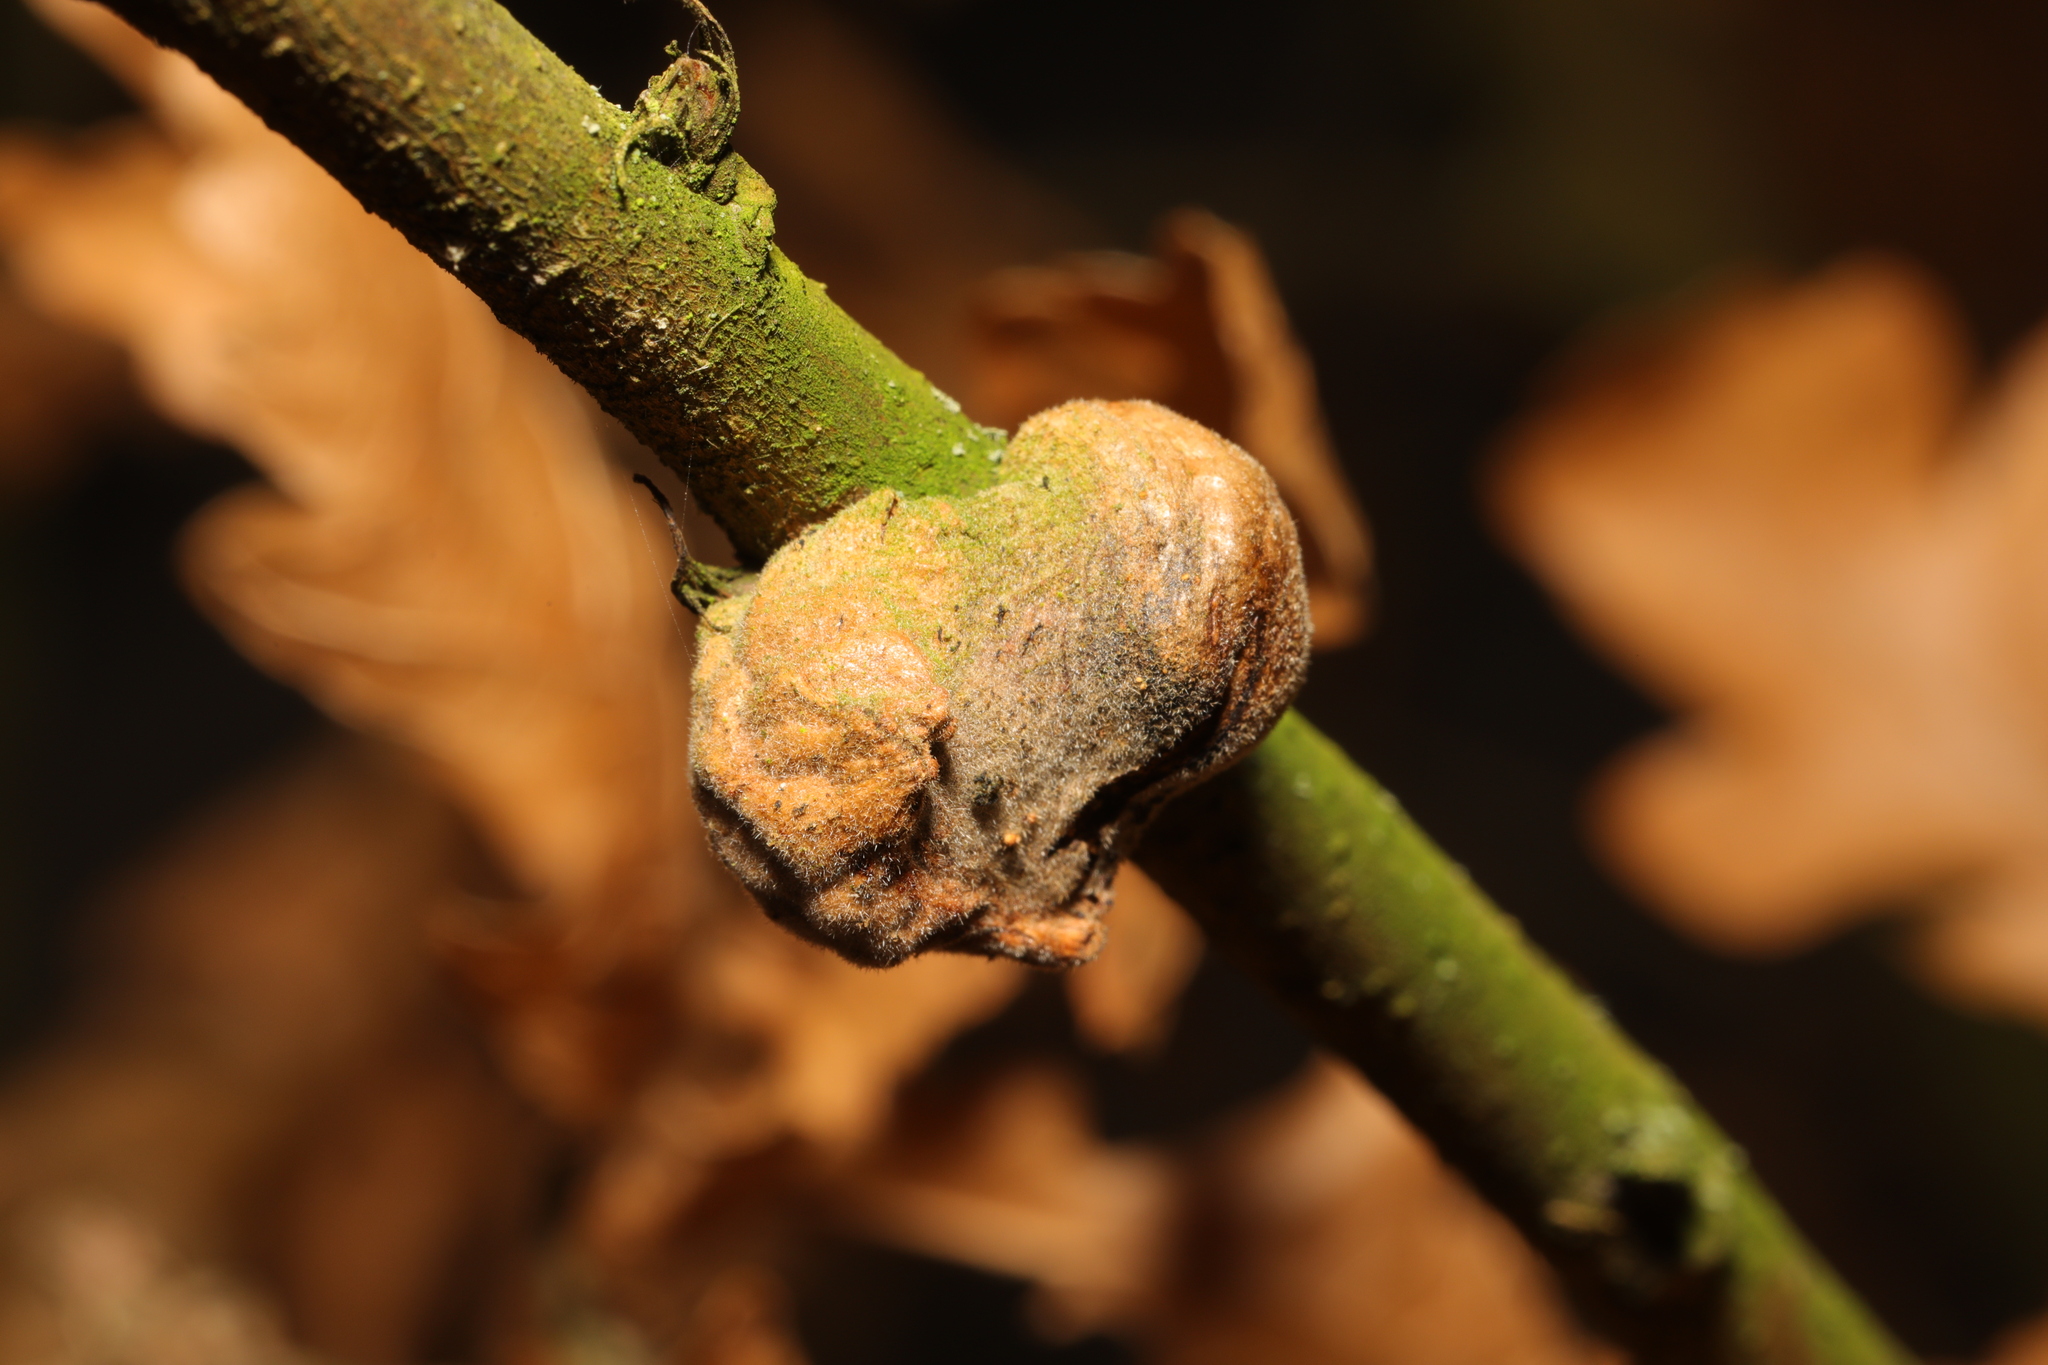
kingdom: Animalia
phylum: Arthropoda
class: Insecta
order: Hymenoptera
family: Cynipidae
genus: Aphelonyx
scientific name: Aphelonyx cerricola
